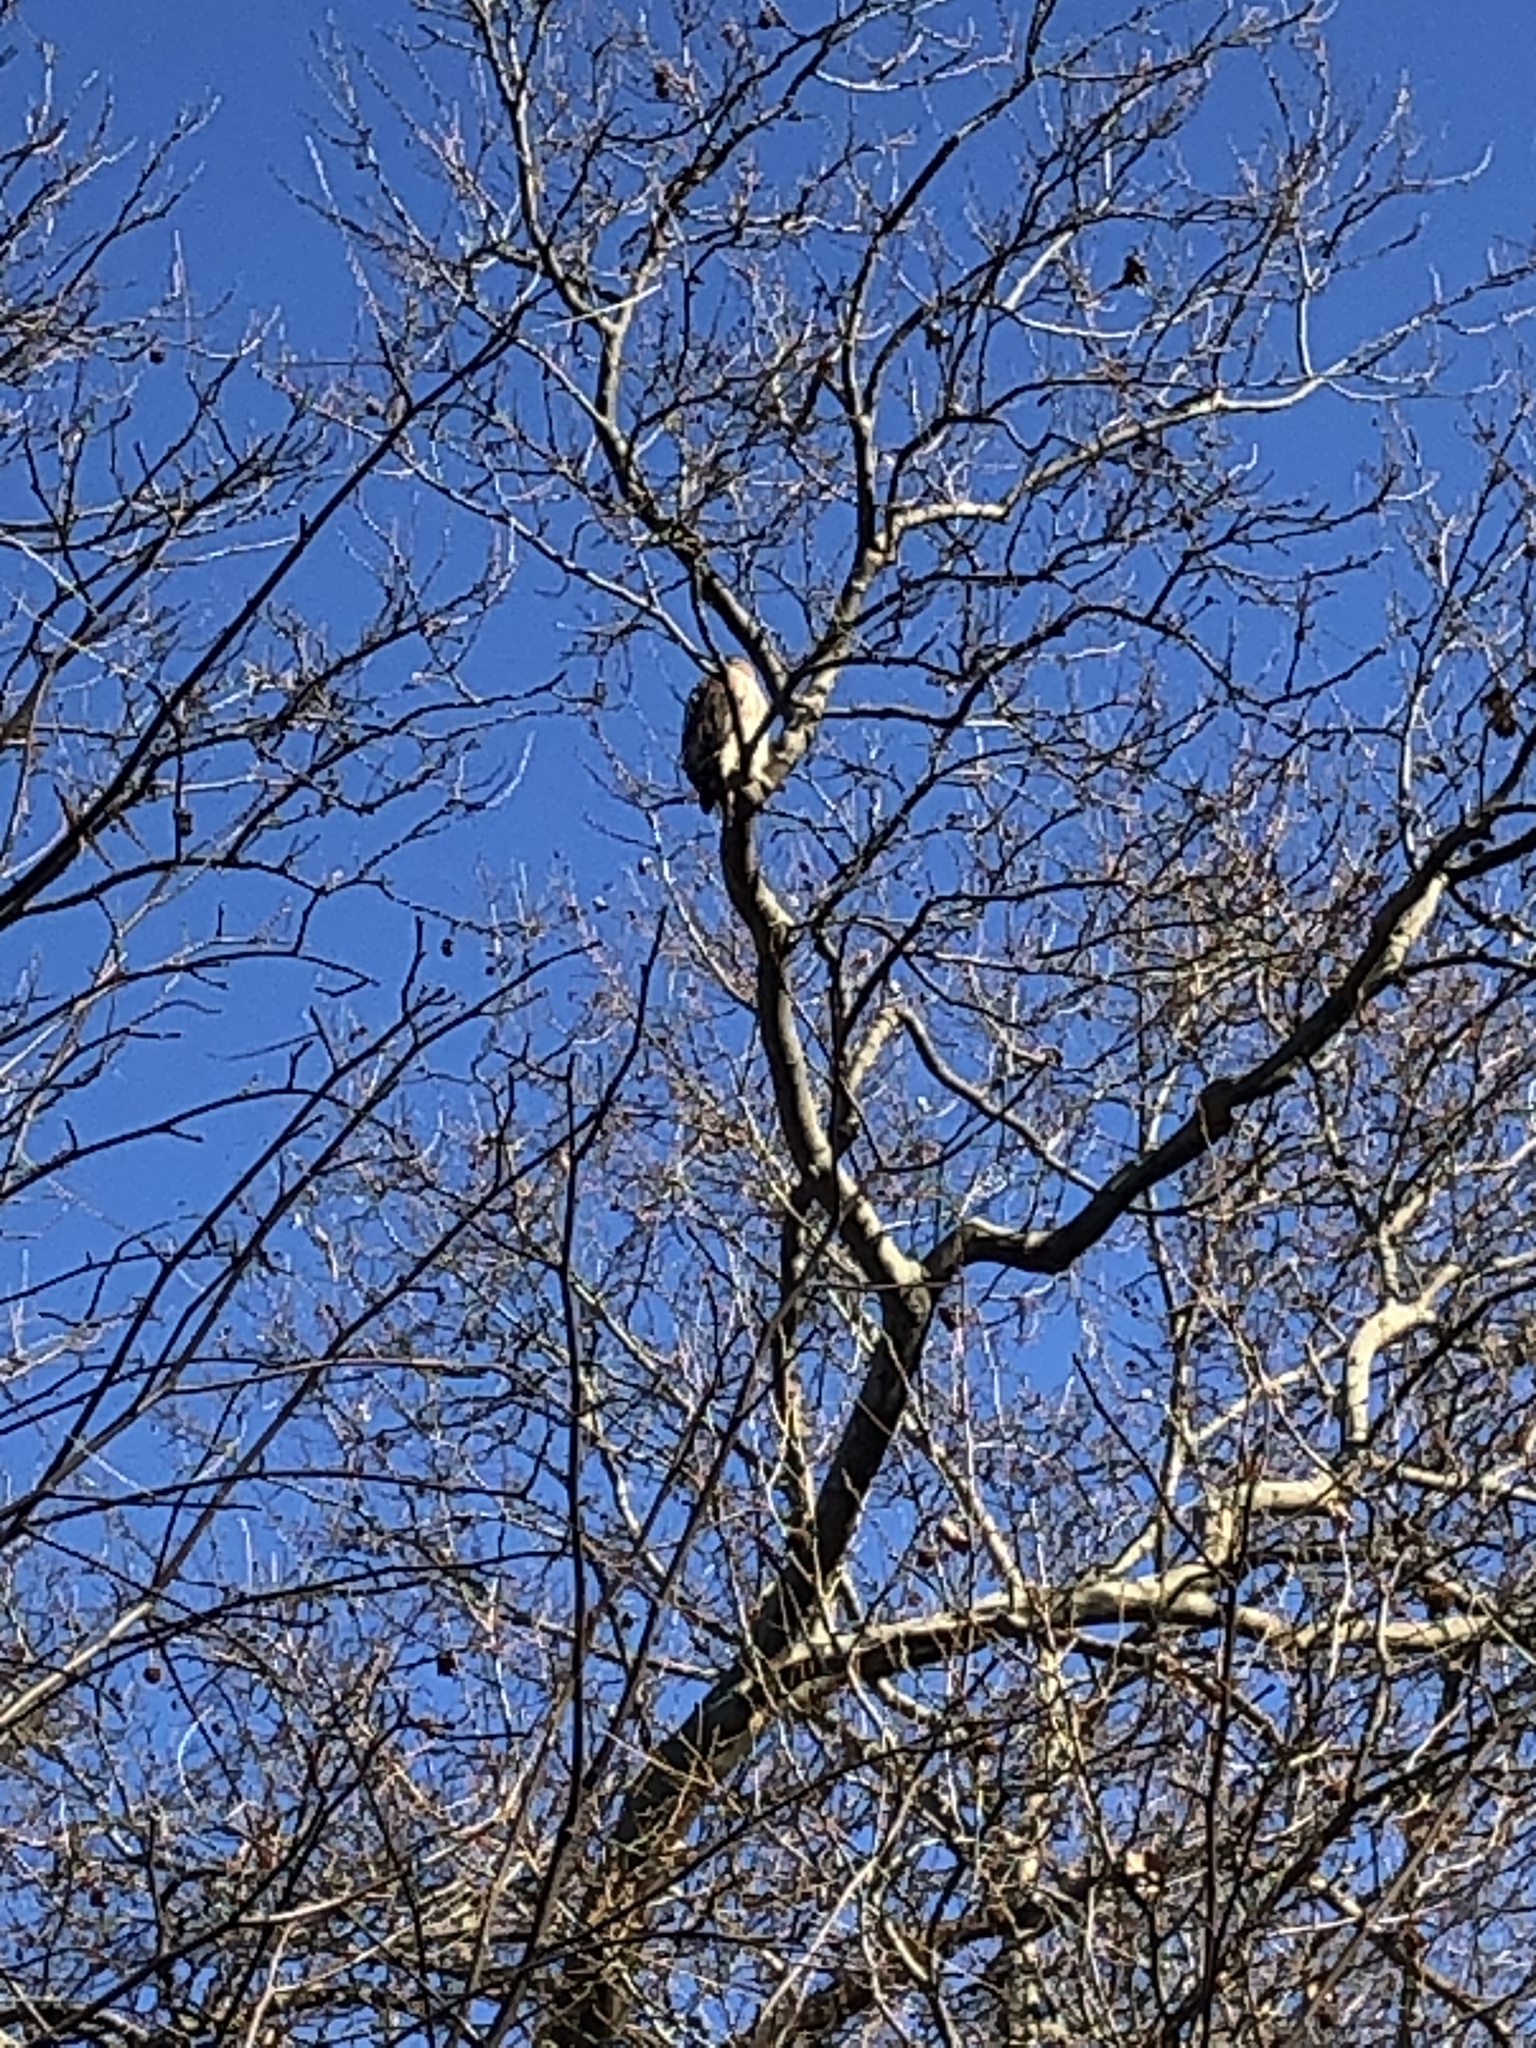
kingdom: Animalia
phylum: Chordata
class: Aves
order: Accipitriformes
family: Accipitridae
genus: Buteo
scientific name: Buteo jamaicensis
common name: Red-tailed hawk
